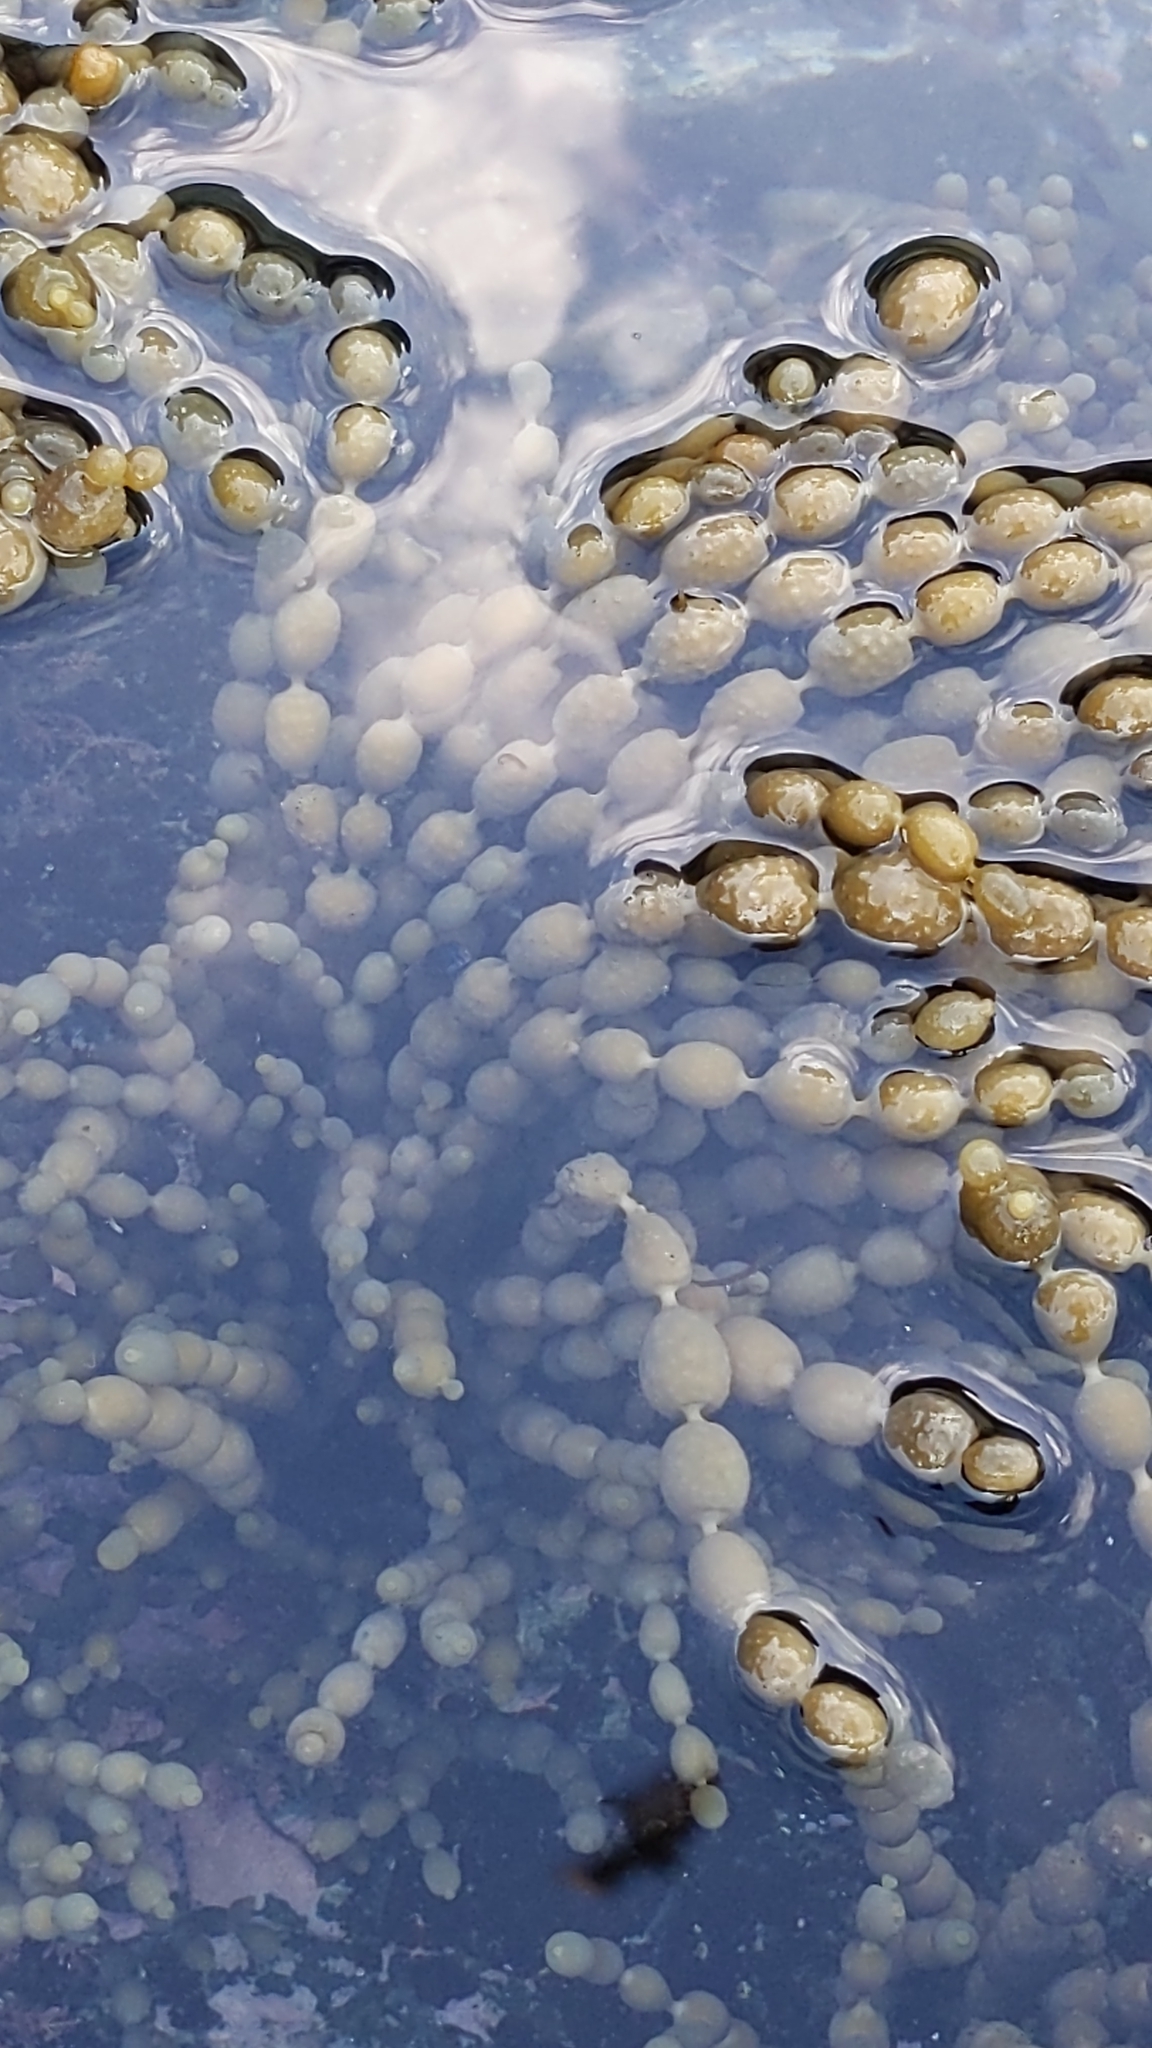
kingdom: Chromista
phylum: Ochrophyta
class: Phaeophyceae
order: Fucales
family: Hormosiraceae
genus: Hormosira
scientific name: Hormosira banksii
